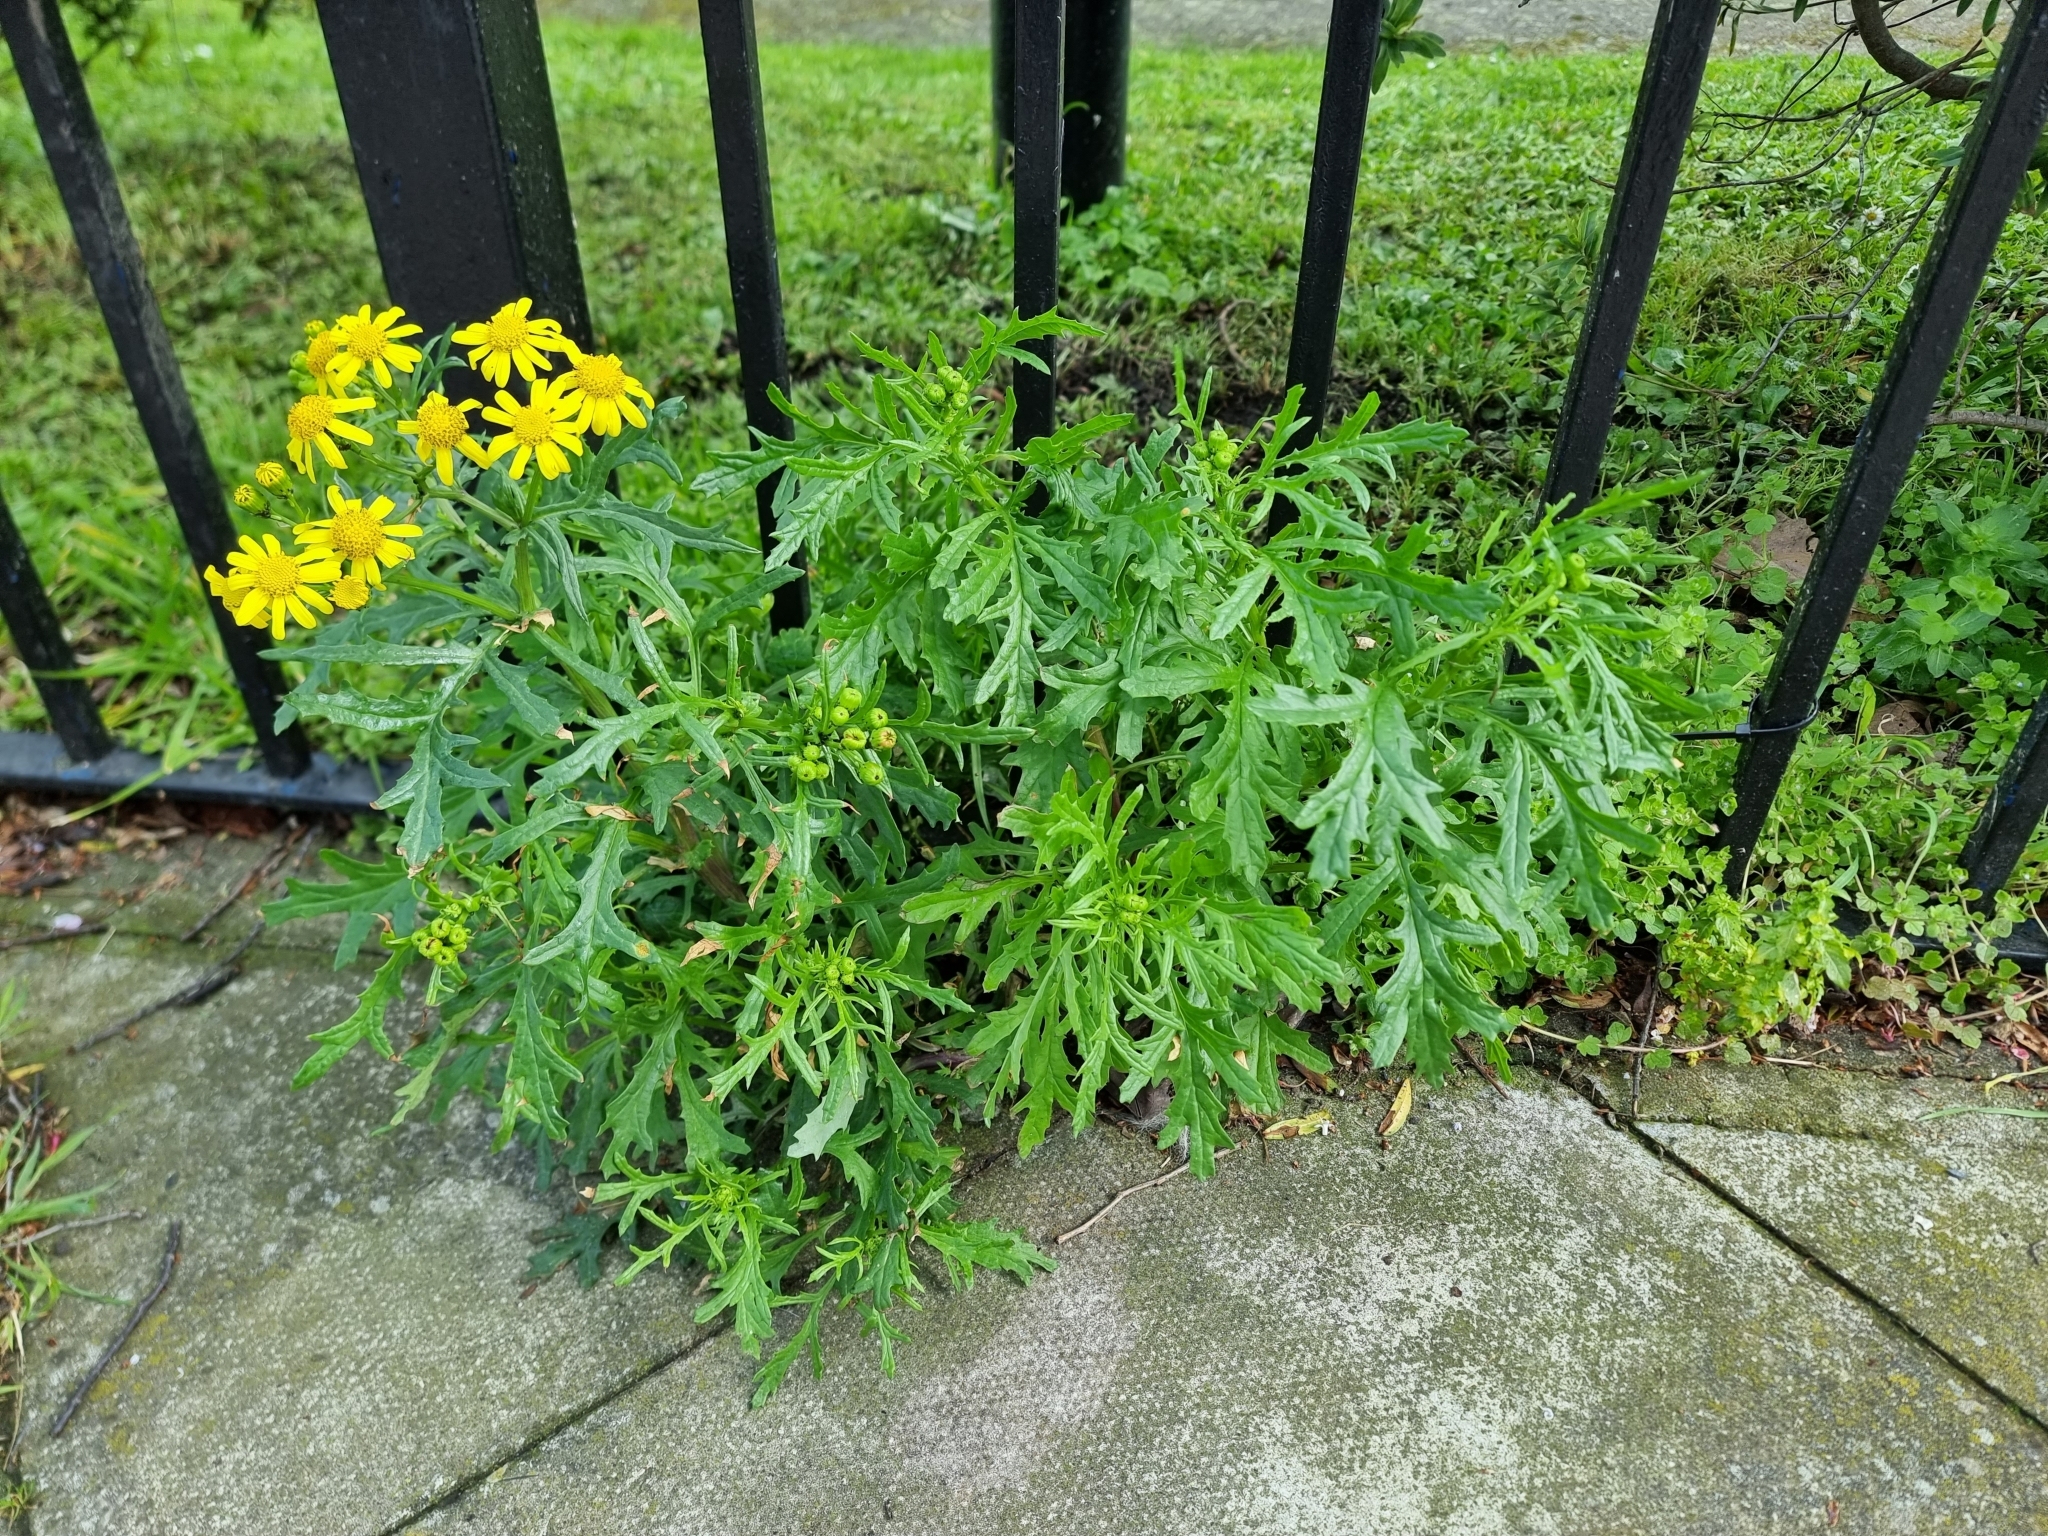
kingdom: Plantae
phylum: Tracheophyta
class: Magnoliopsida
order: Asterales
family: Asteraceae
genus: Senecio
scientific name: Senecio squalidus
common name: Oxford ragwort
